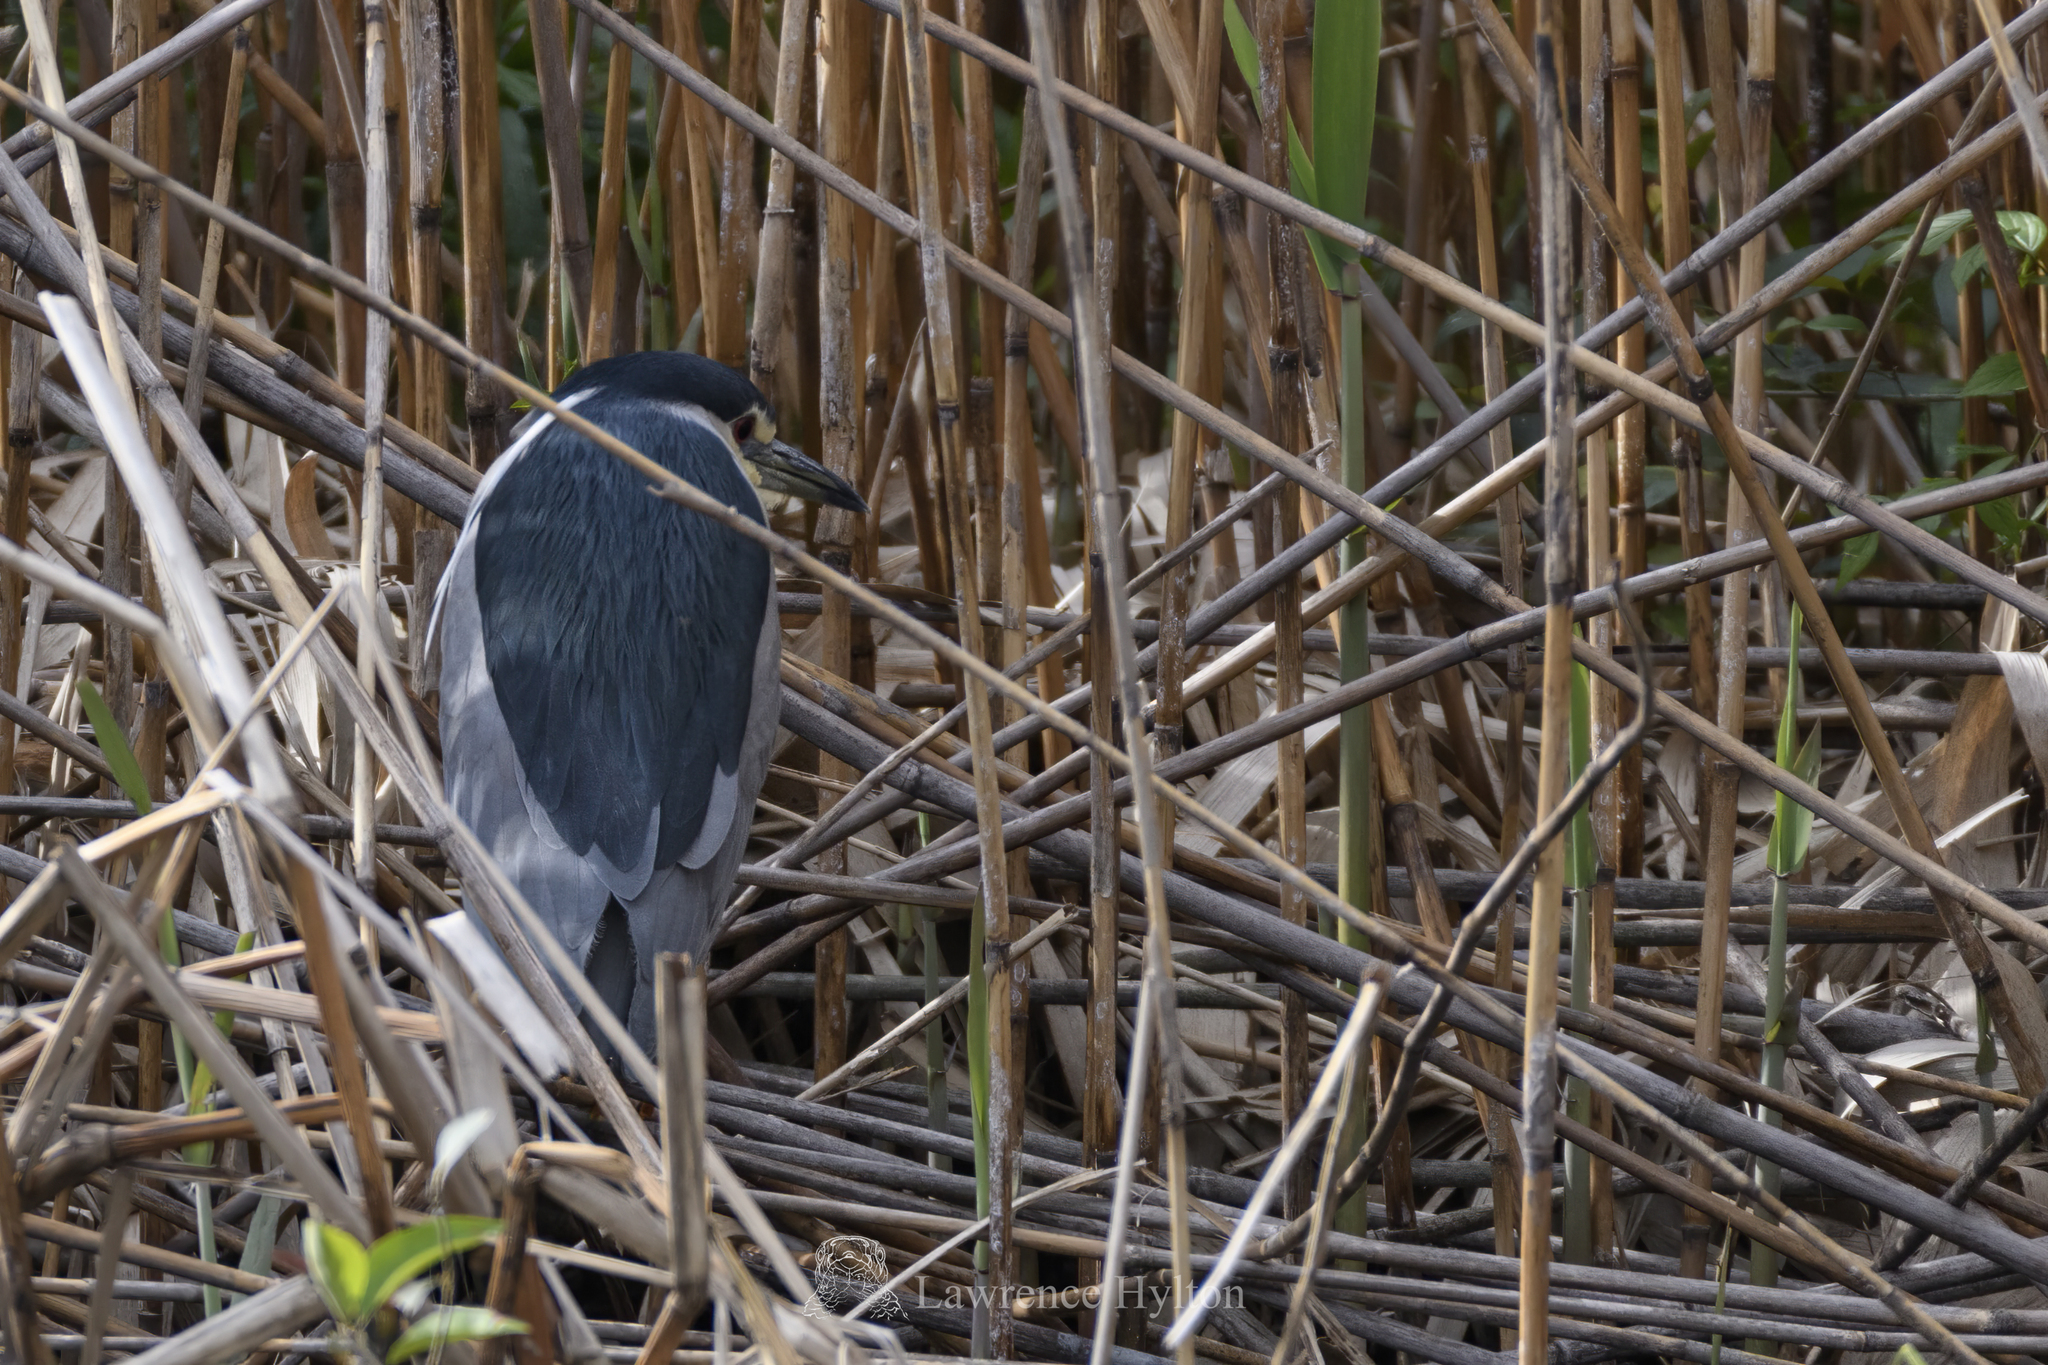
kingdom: Animalia
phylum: Chordata
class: Aves
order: Pelecaniformes
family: Ardeidae
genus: Nycticorax
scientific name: Nycticorax nycticorax
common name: Black-crowned night heron
